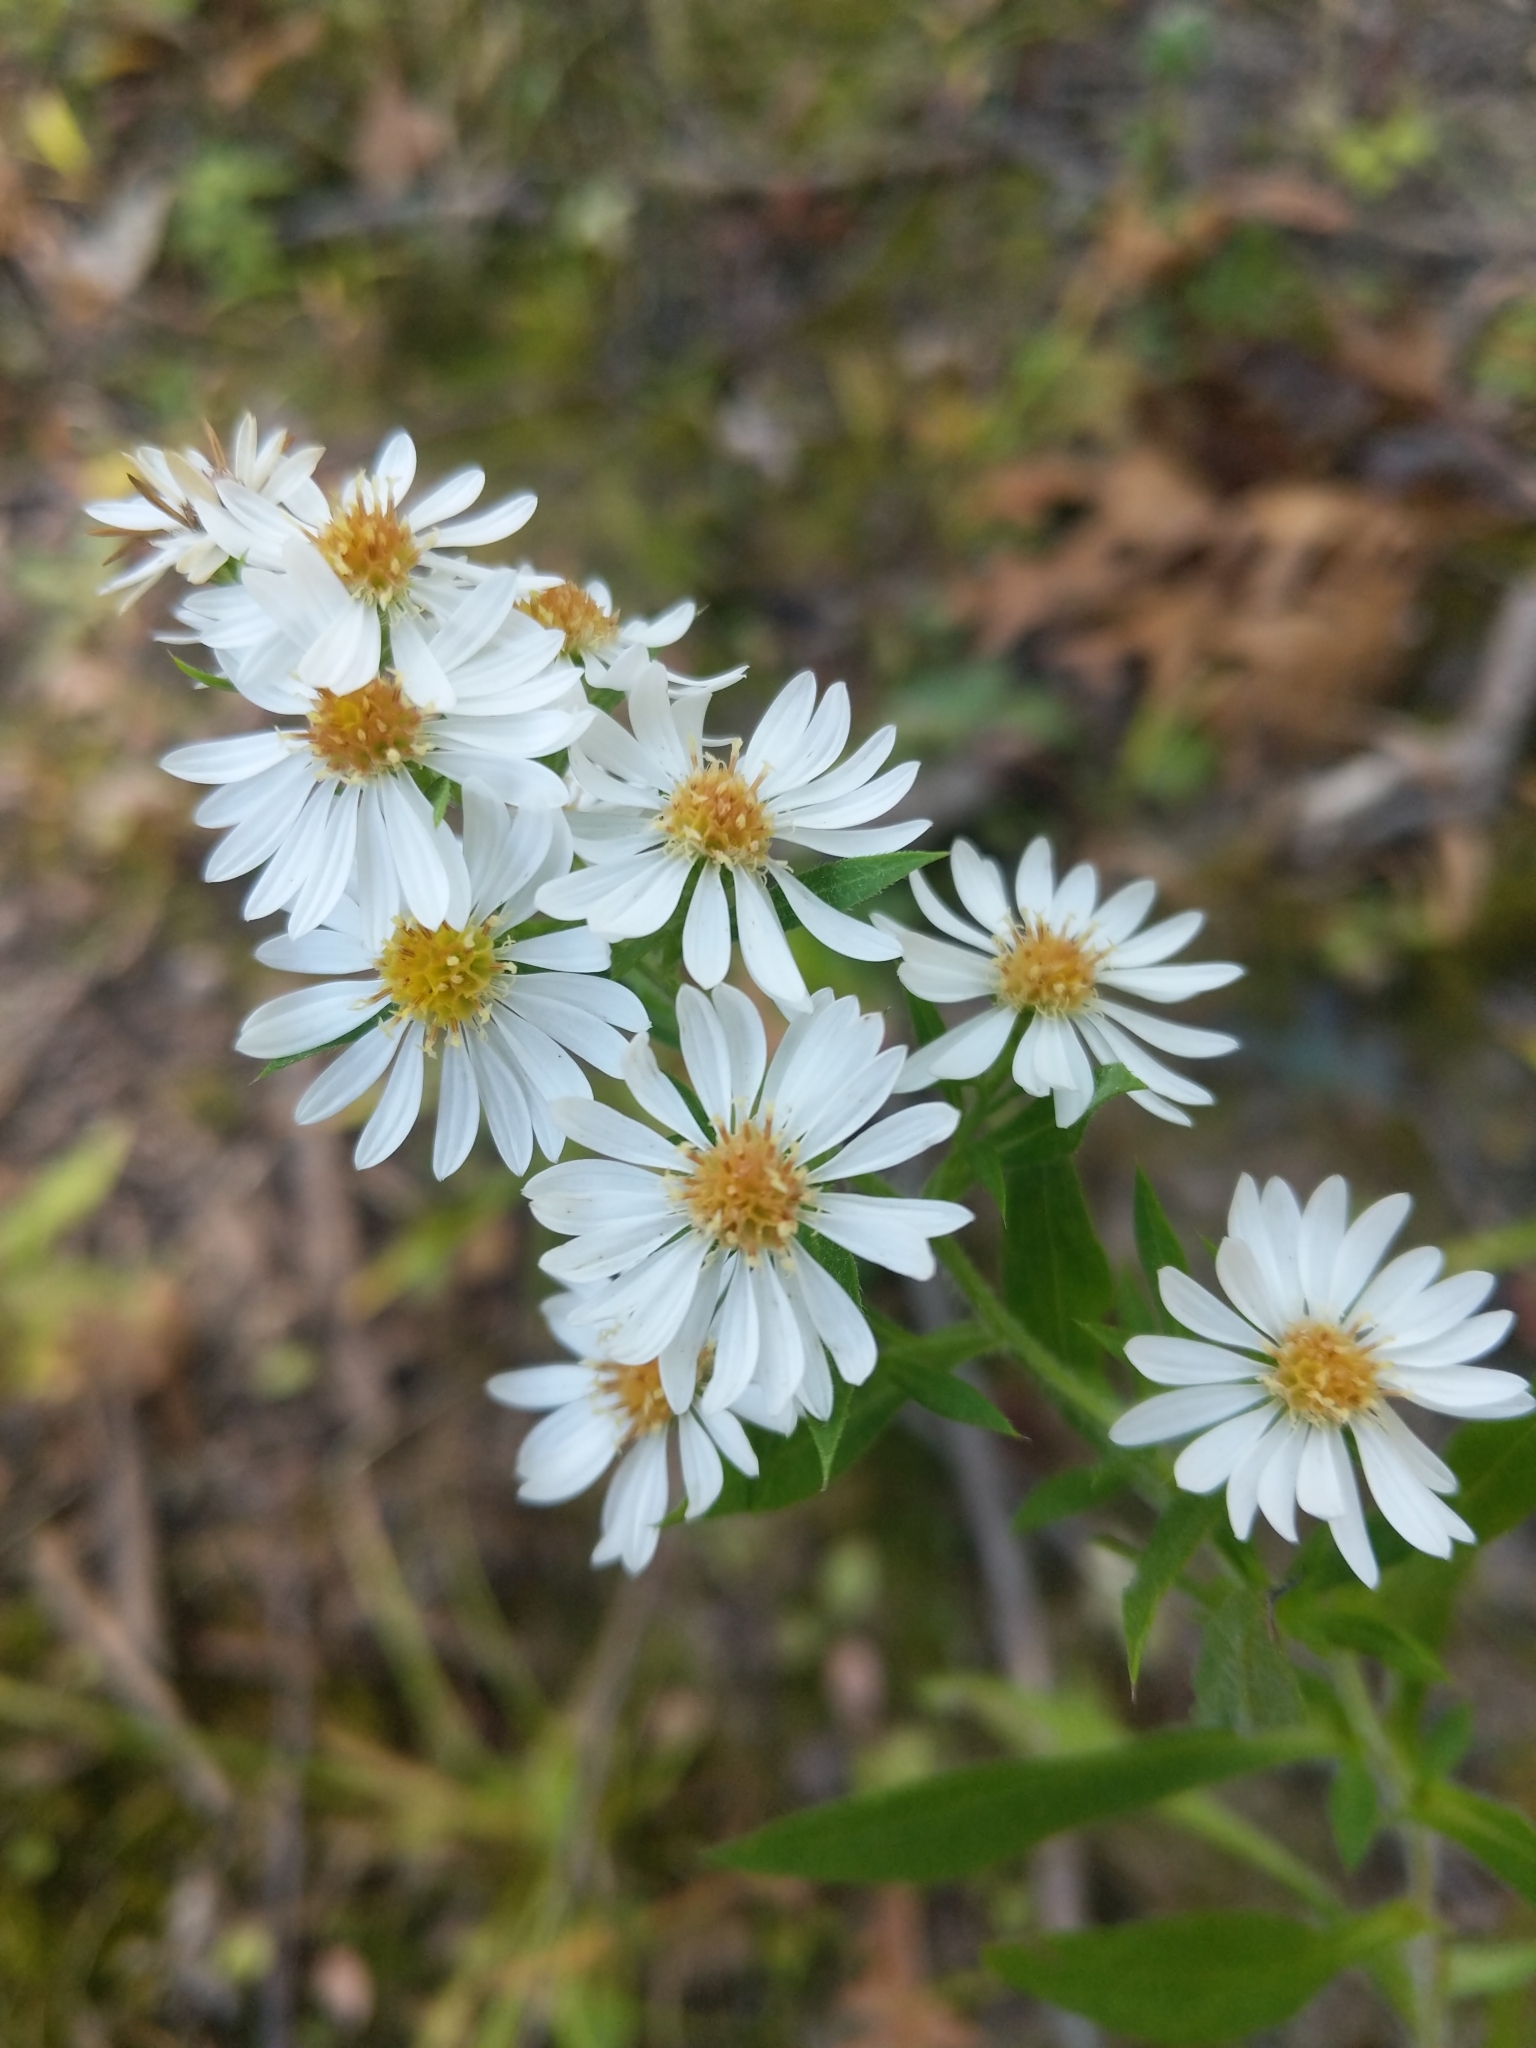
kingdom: Plantae
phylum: Tracheophyta
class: Magnoliopsida
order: Asterales
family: Asteraceae
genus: Symphyotrichum
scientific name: Symphyotrichum pilosum
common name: Awl aster
